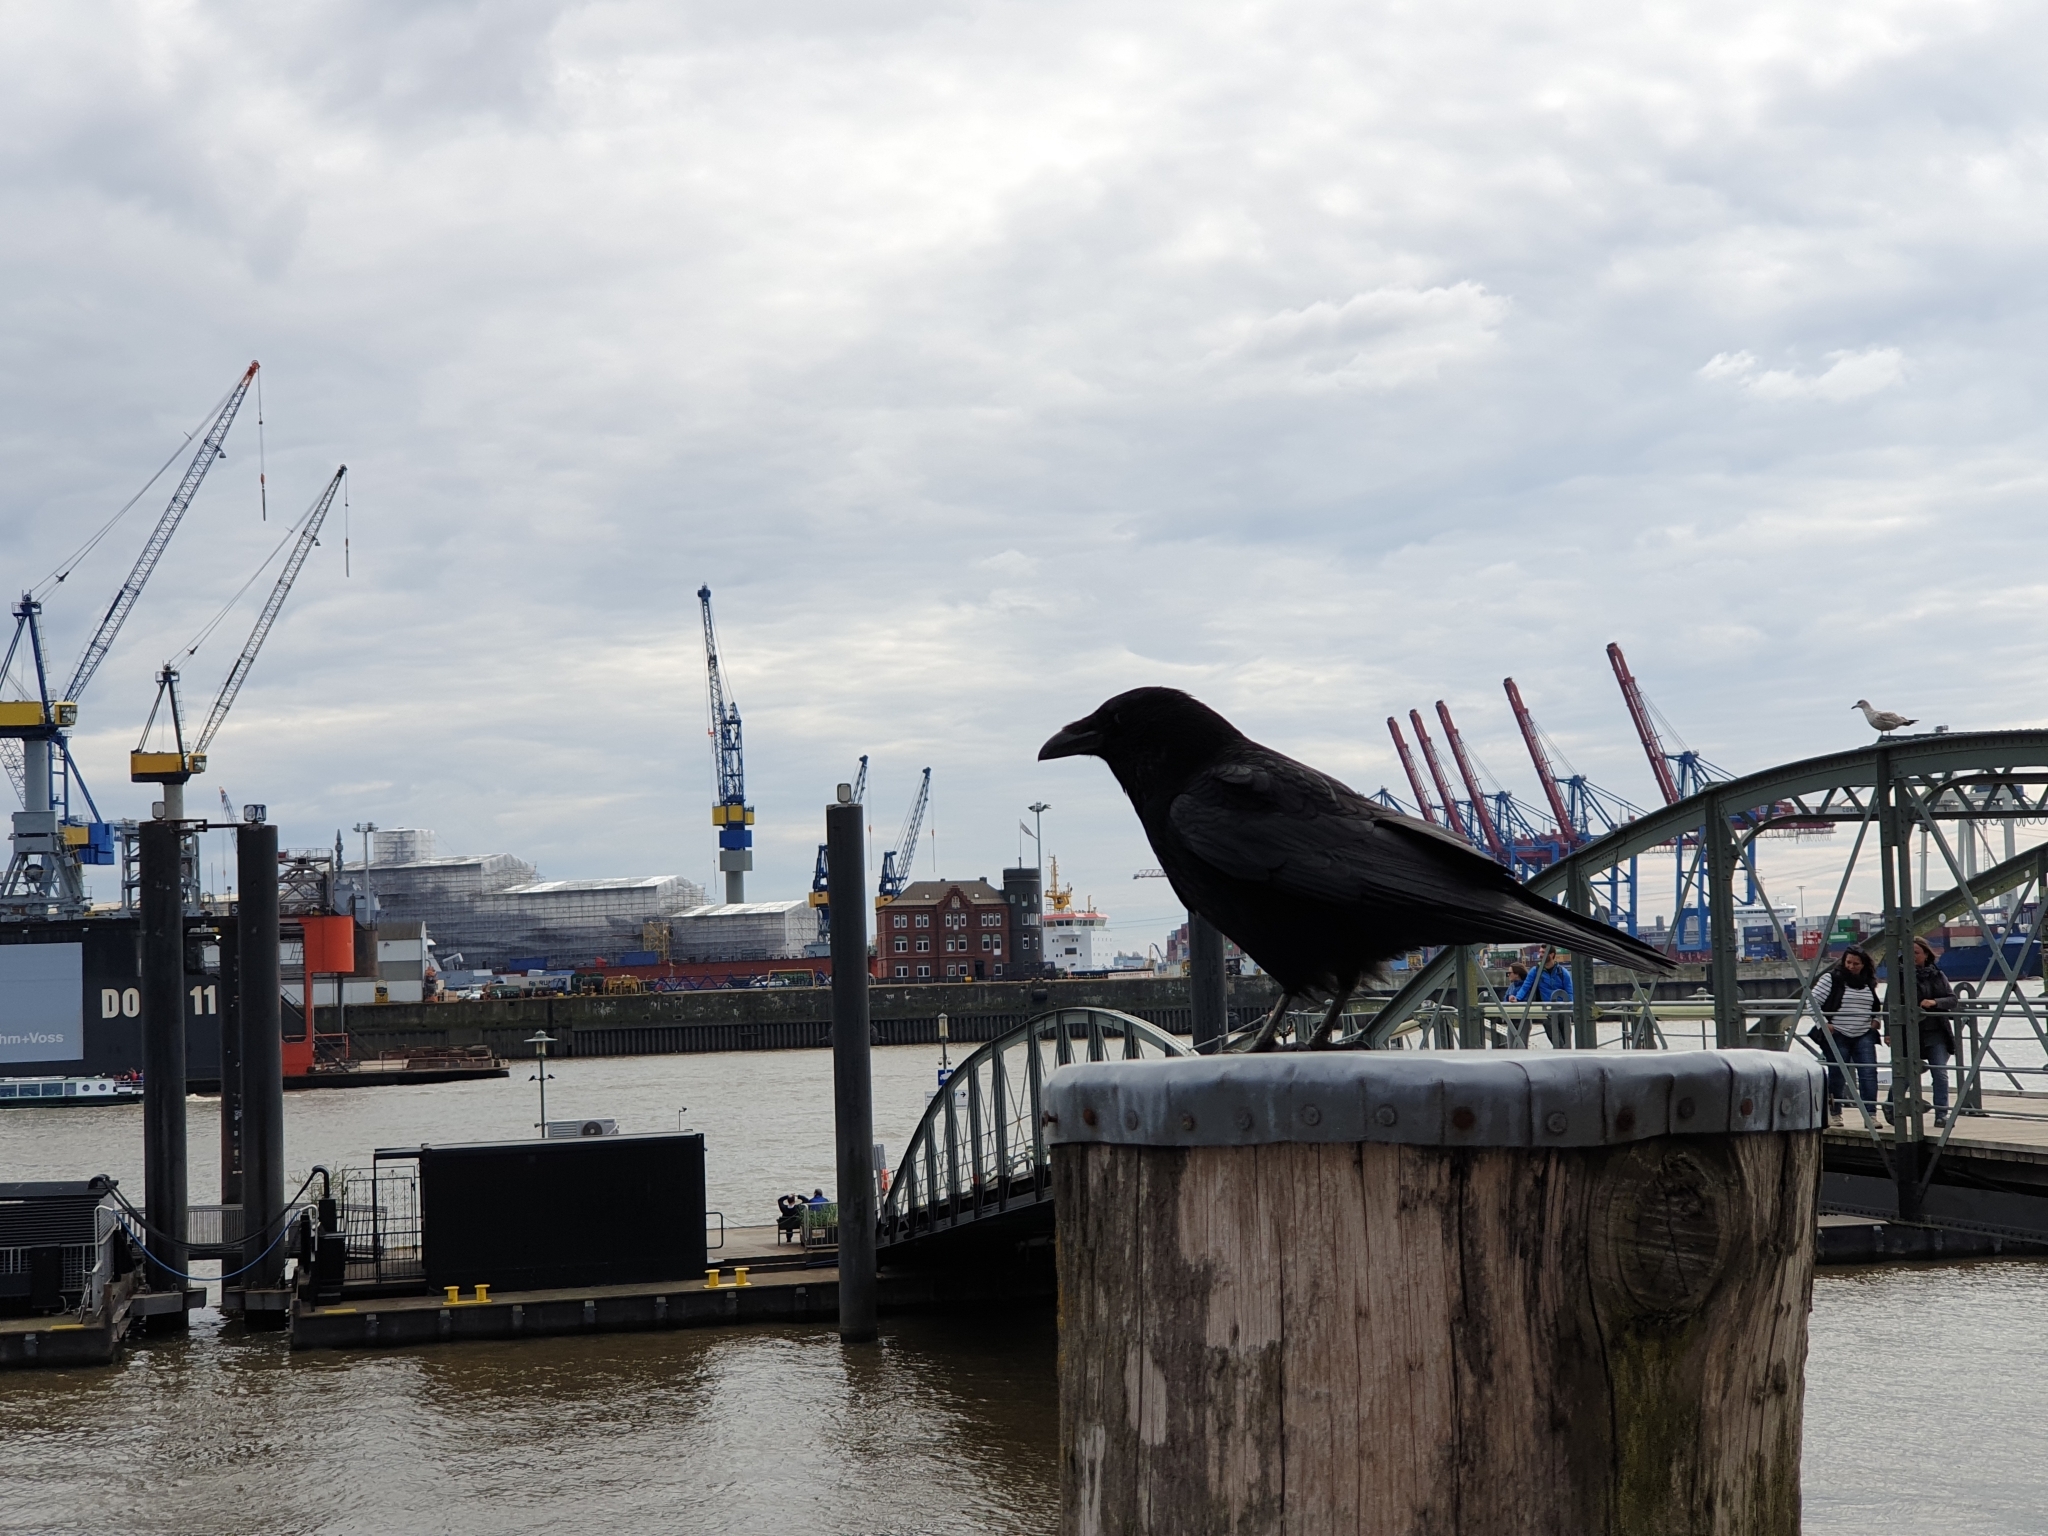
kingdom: Animalia
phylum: Chordata
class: Aves
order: Passeriformes
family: Corvidae
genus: Corvus
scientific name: Corvus corone
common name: Carrion crow
